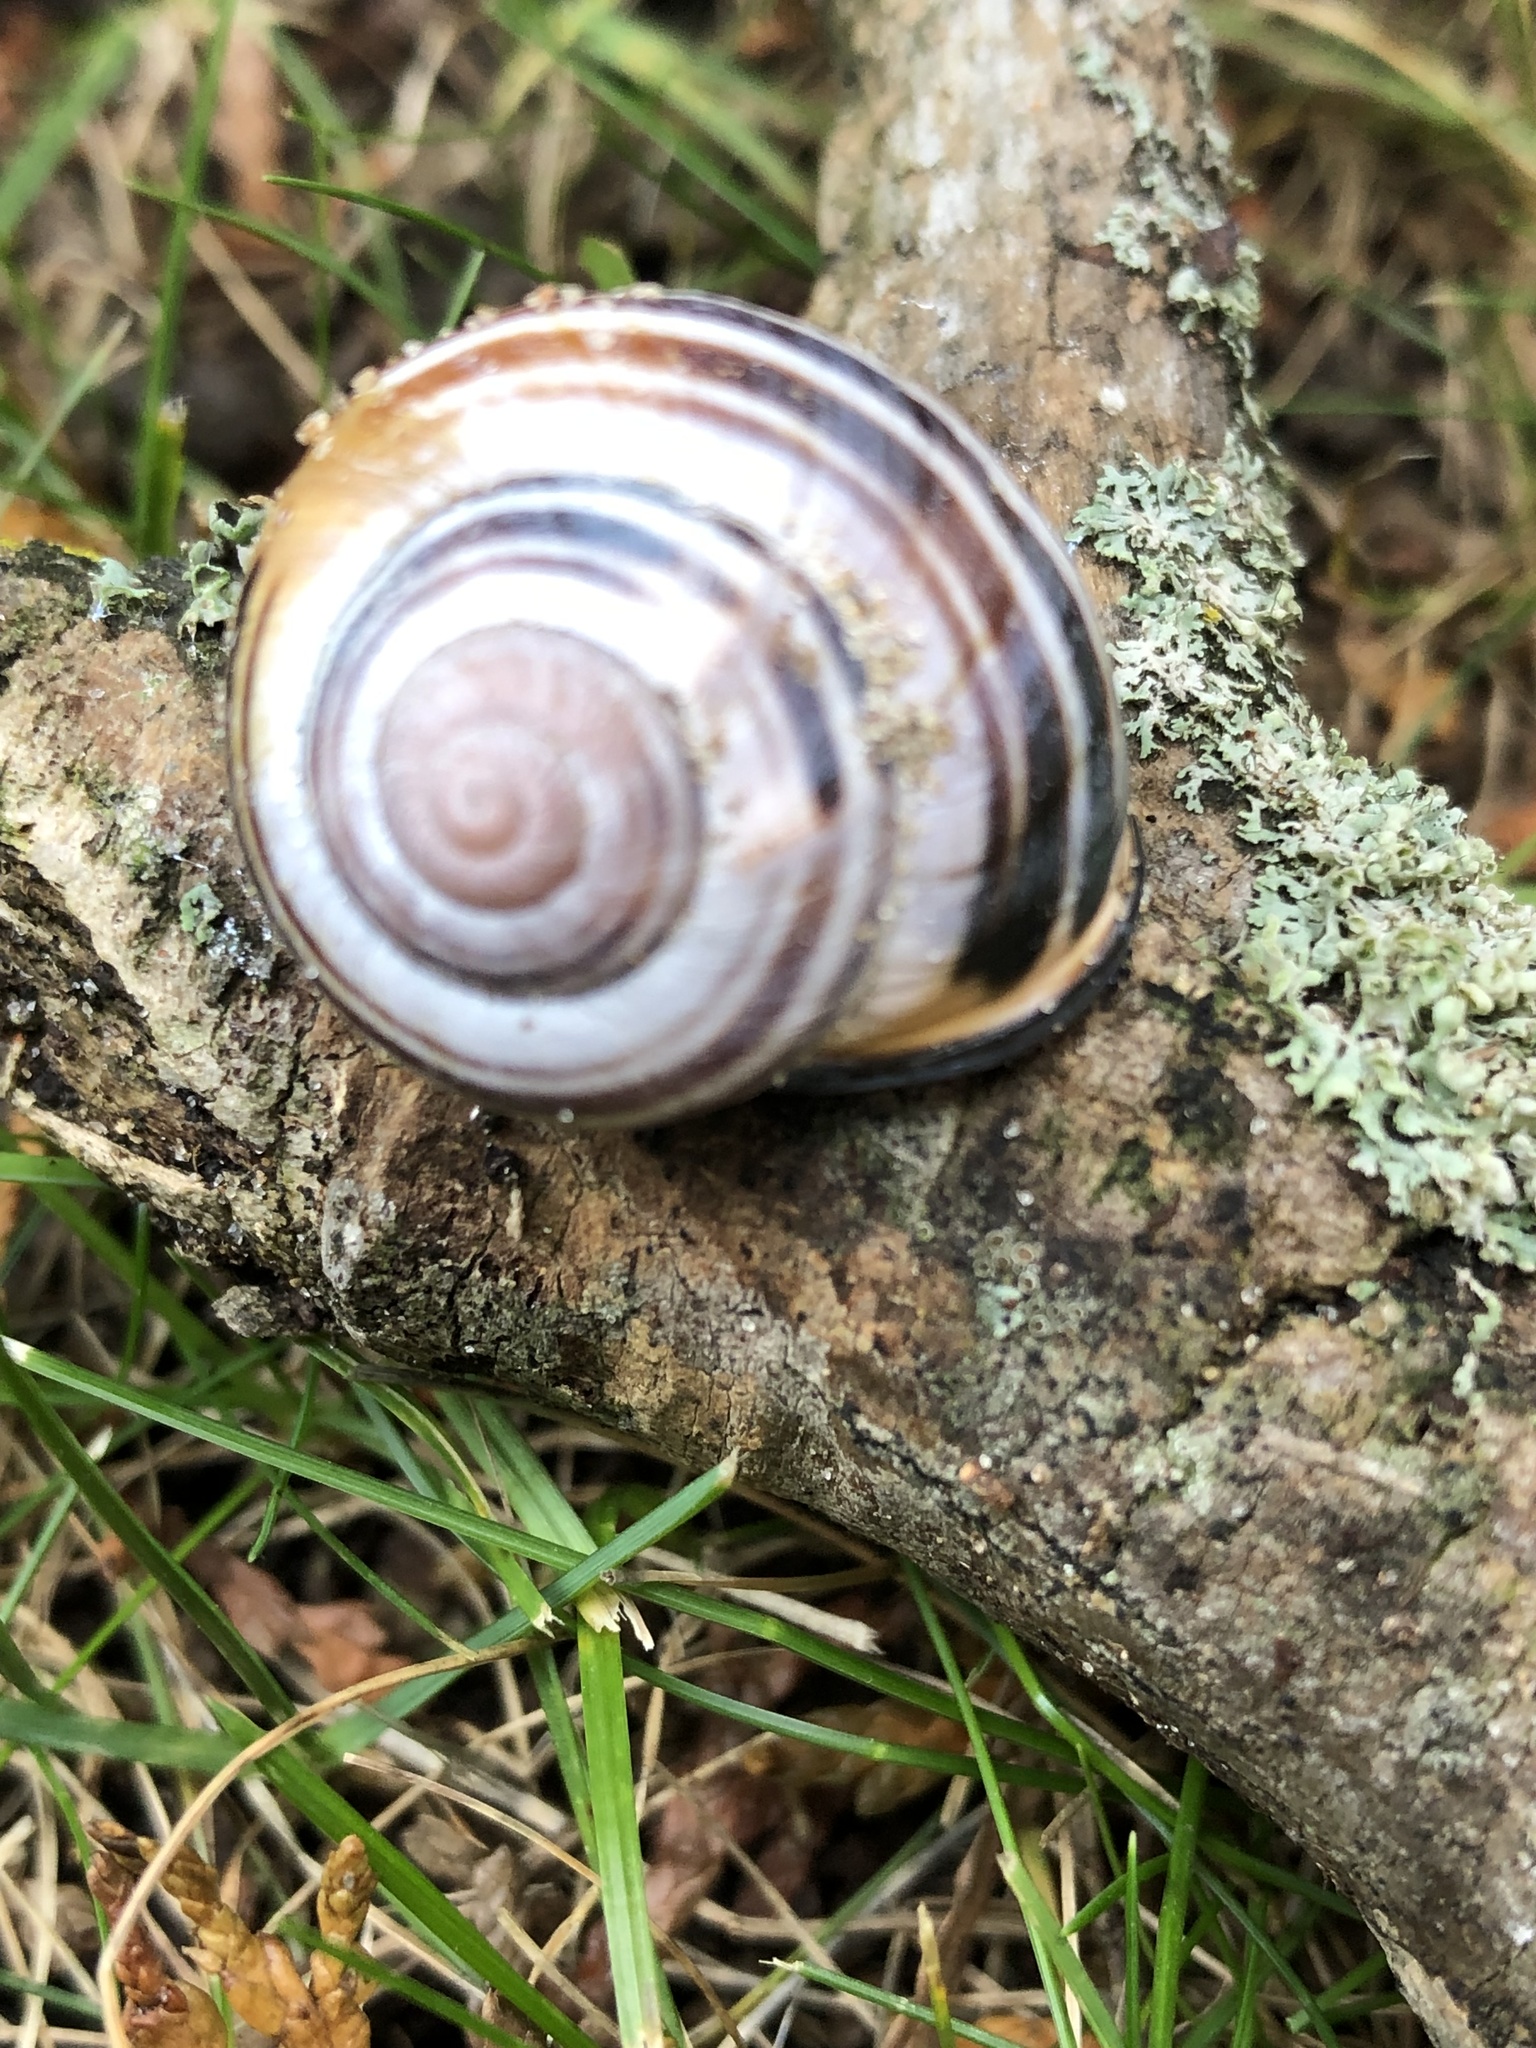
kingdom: Animalia
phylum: Mollusca
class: Gastropoda
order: Stylommatophora
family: Helicidae
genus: Cepaea
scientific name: Cepaea nemoralis
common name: Grovesnail
